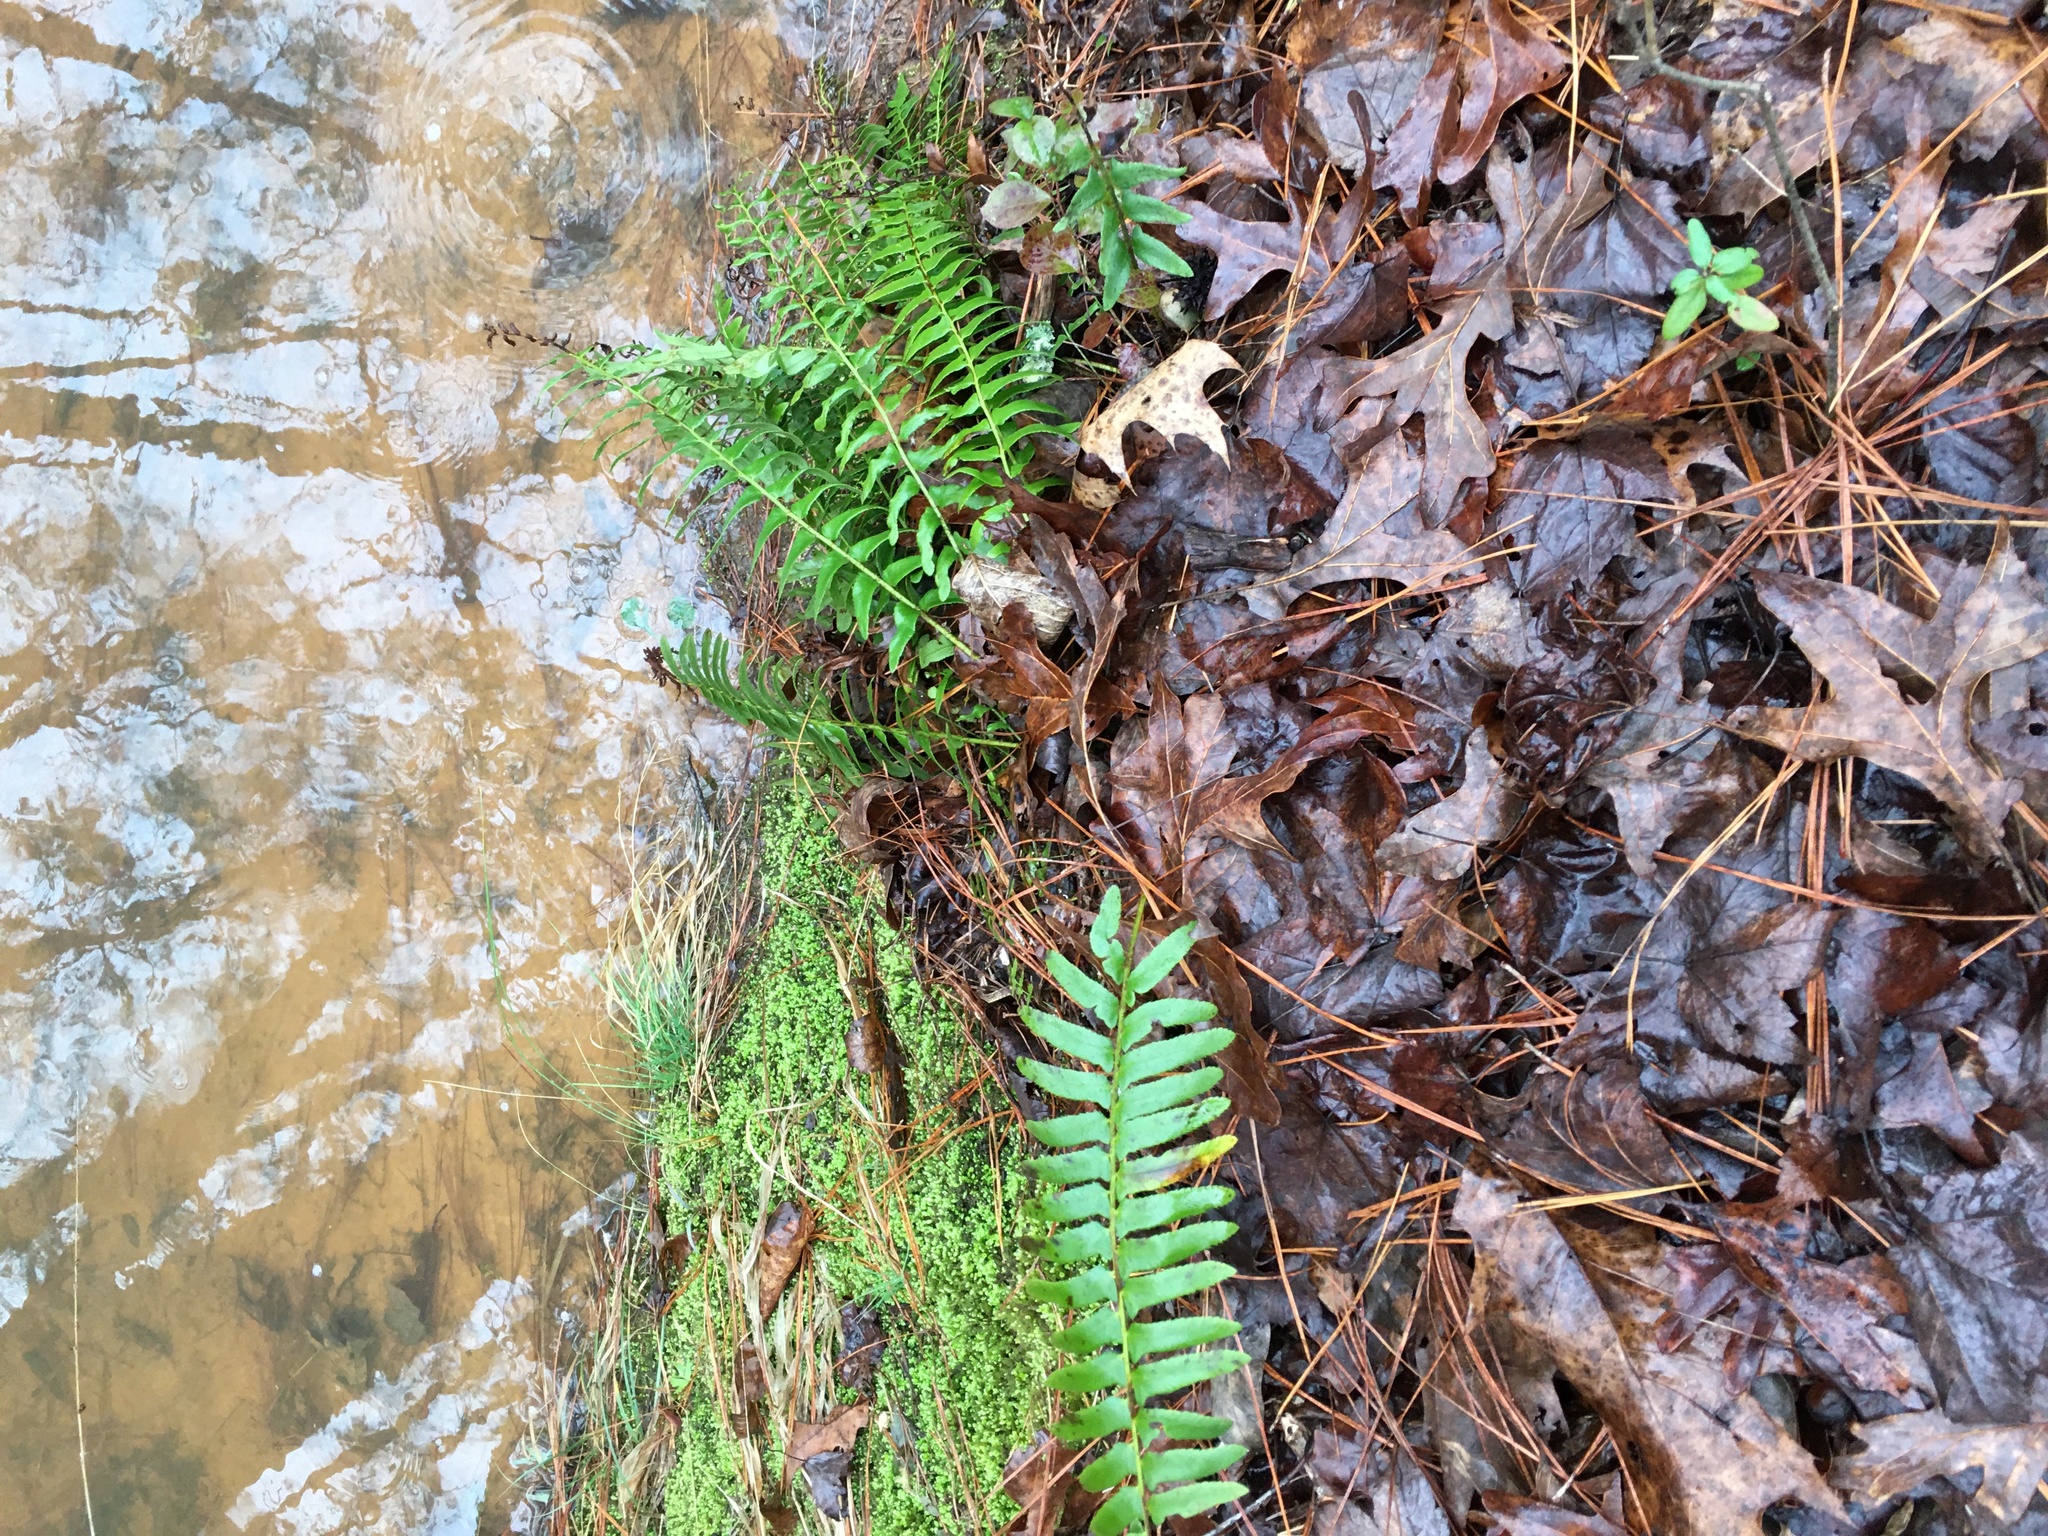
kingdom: Plantae
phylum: Tracheophyta
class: Polypodiopsida
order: Polypodiales
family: Dryopteridaceae
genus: Polystichum
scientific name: Polystichum acrostichoides
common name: Christmas fern
